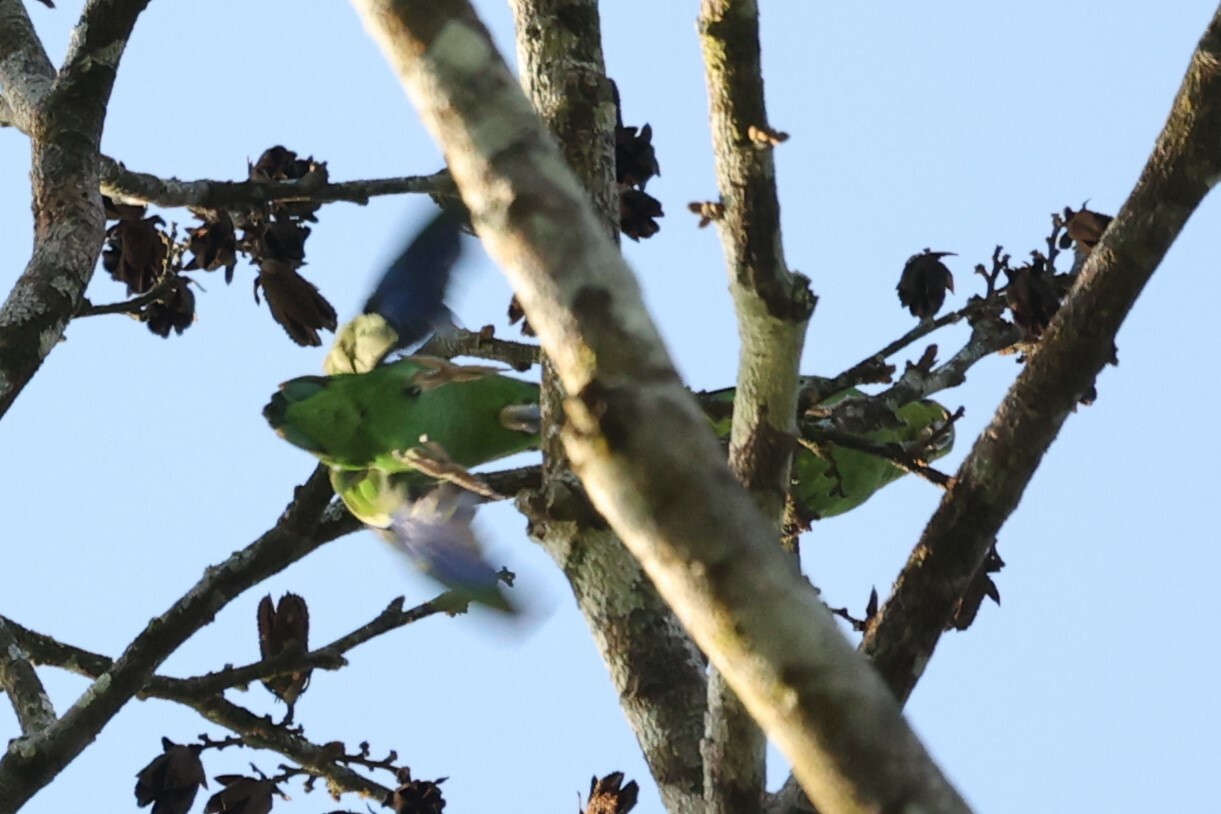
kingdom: Animalia
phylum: Chordata
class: Aves
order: Psittaciformes
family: Psittacidae
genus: Forpus
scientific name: Forpus modestus
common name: Dusky-billed parrotlet
